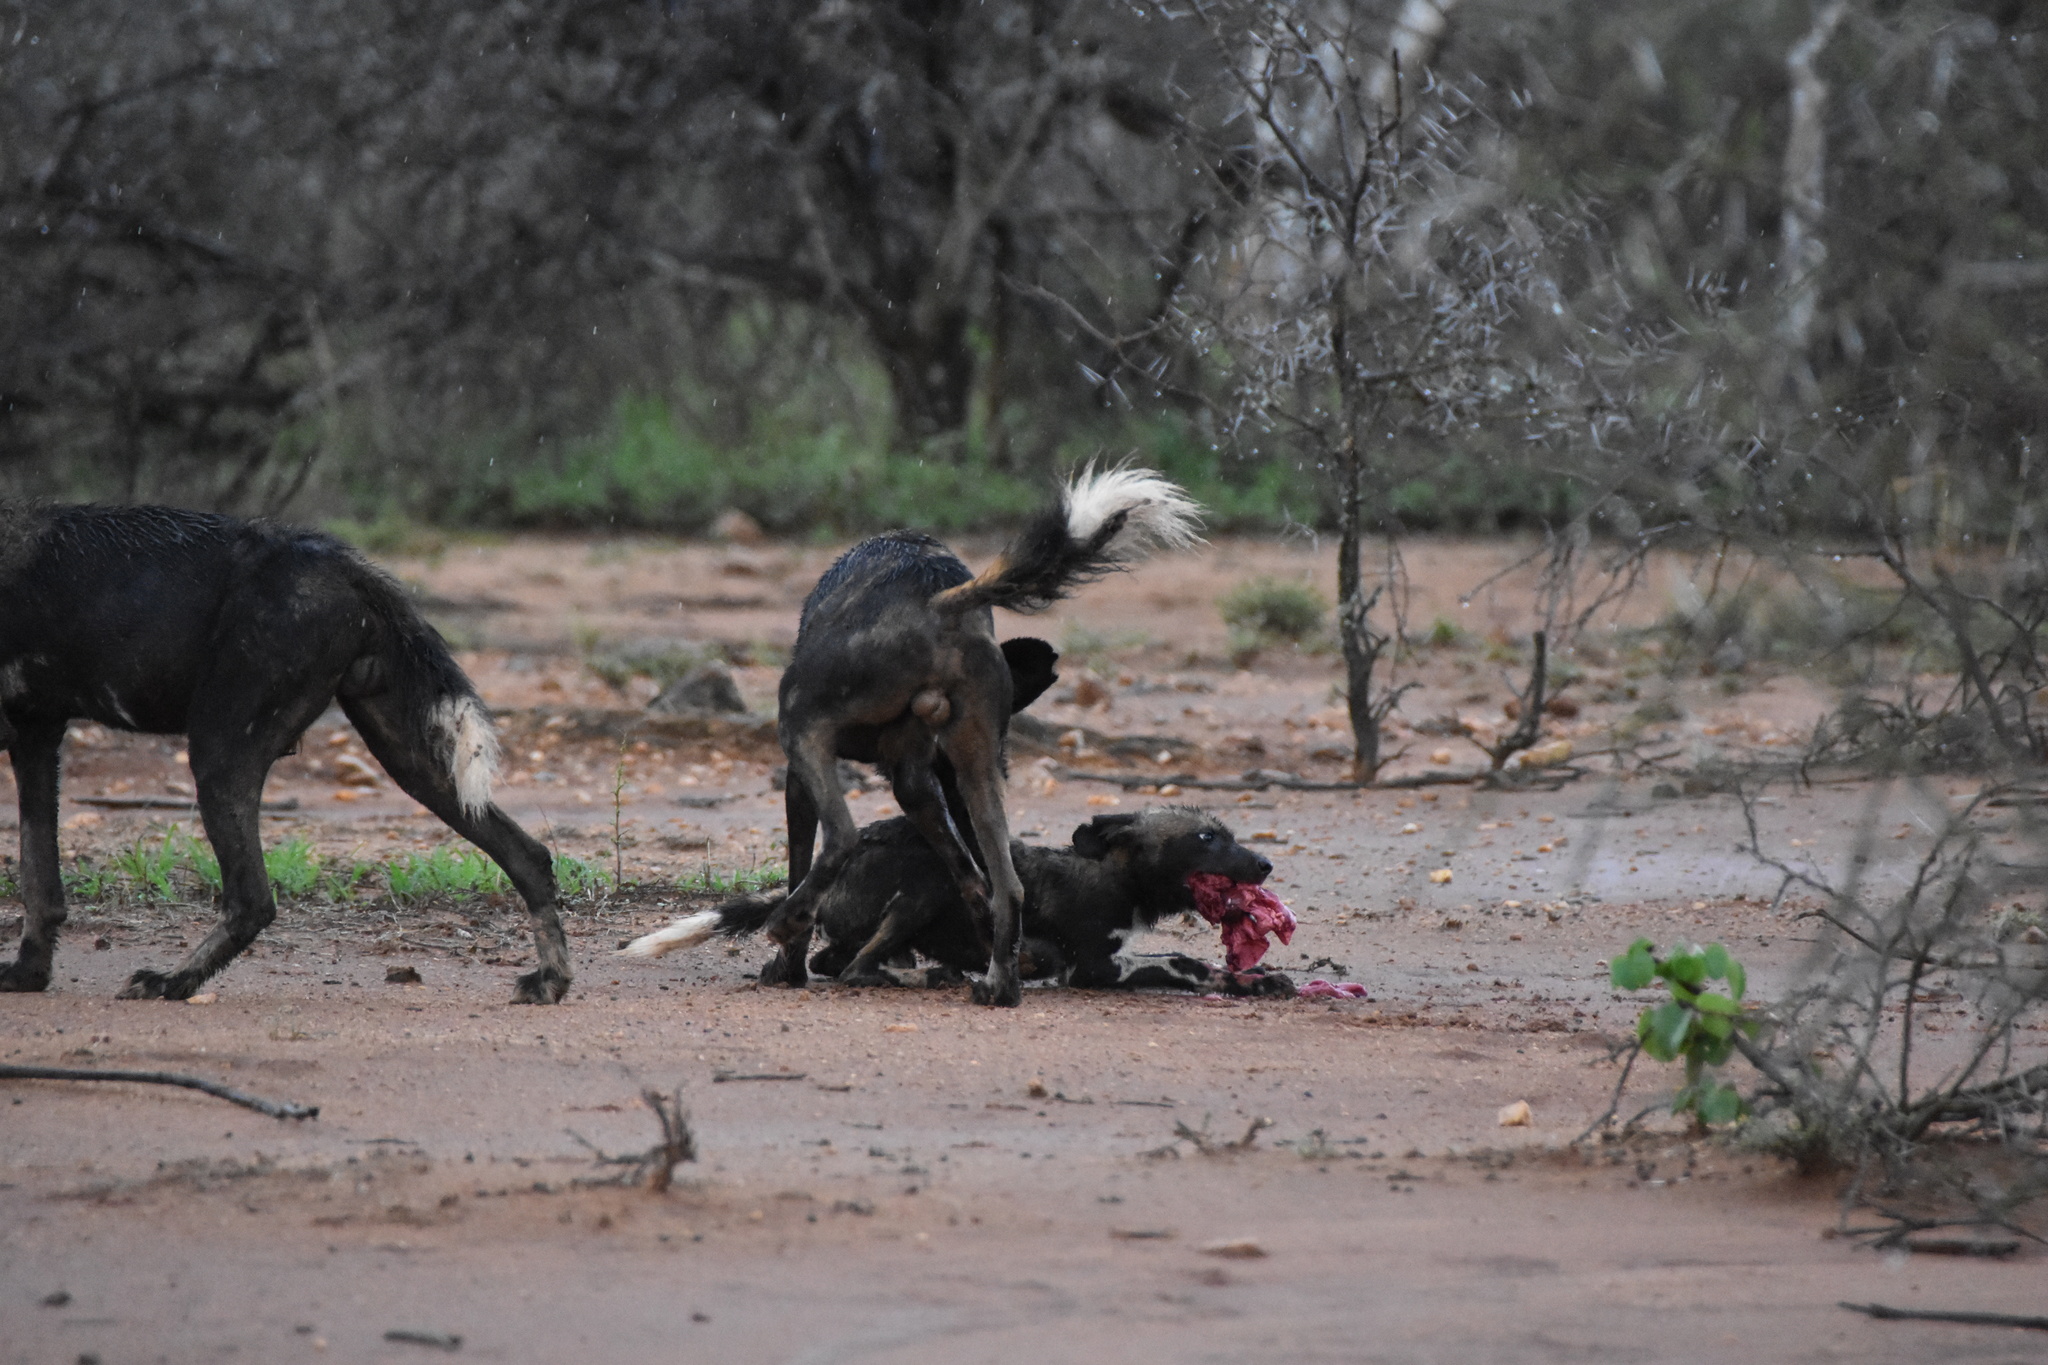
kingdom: Animalia
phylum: Chordata
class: Mammalia
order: Carnivora
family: Canidae
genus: Lycaon
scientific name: Lycaon pictus
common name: African wild dog
